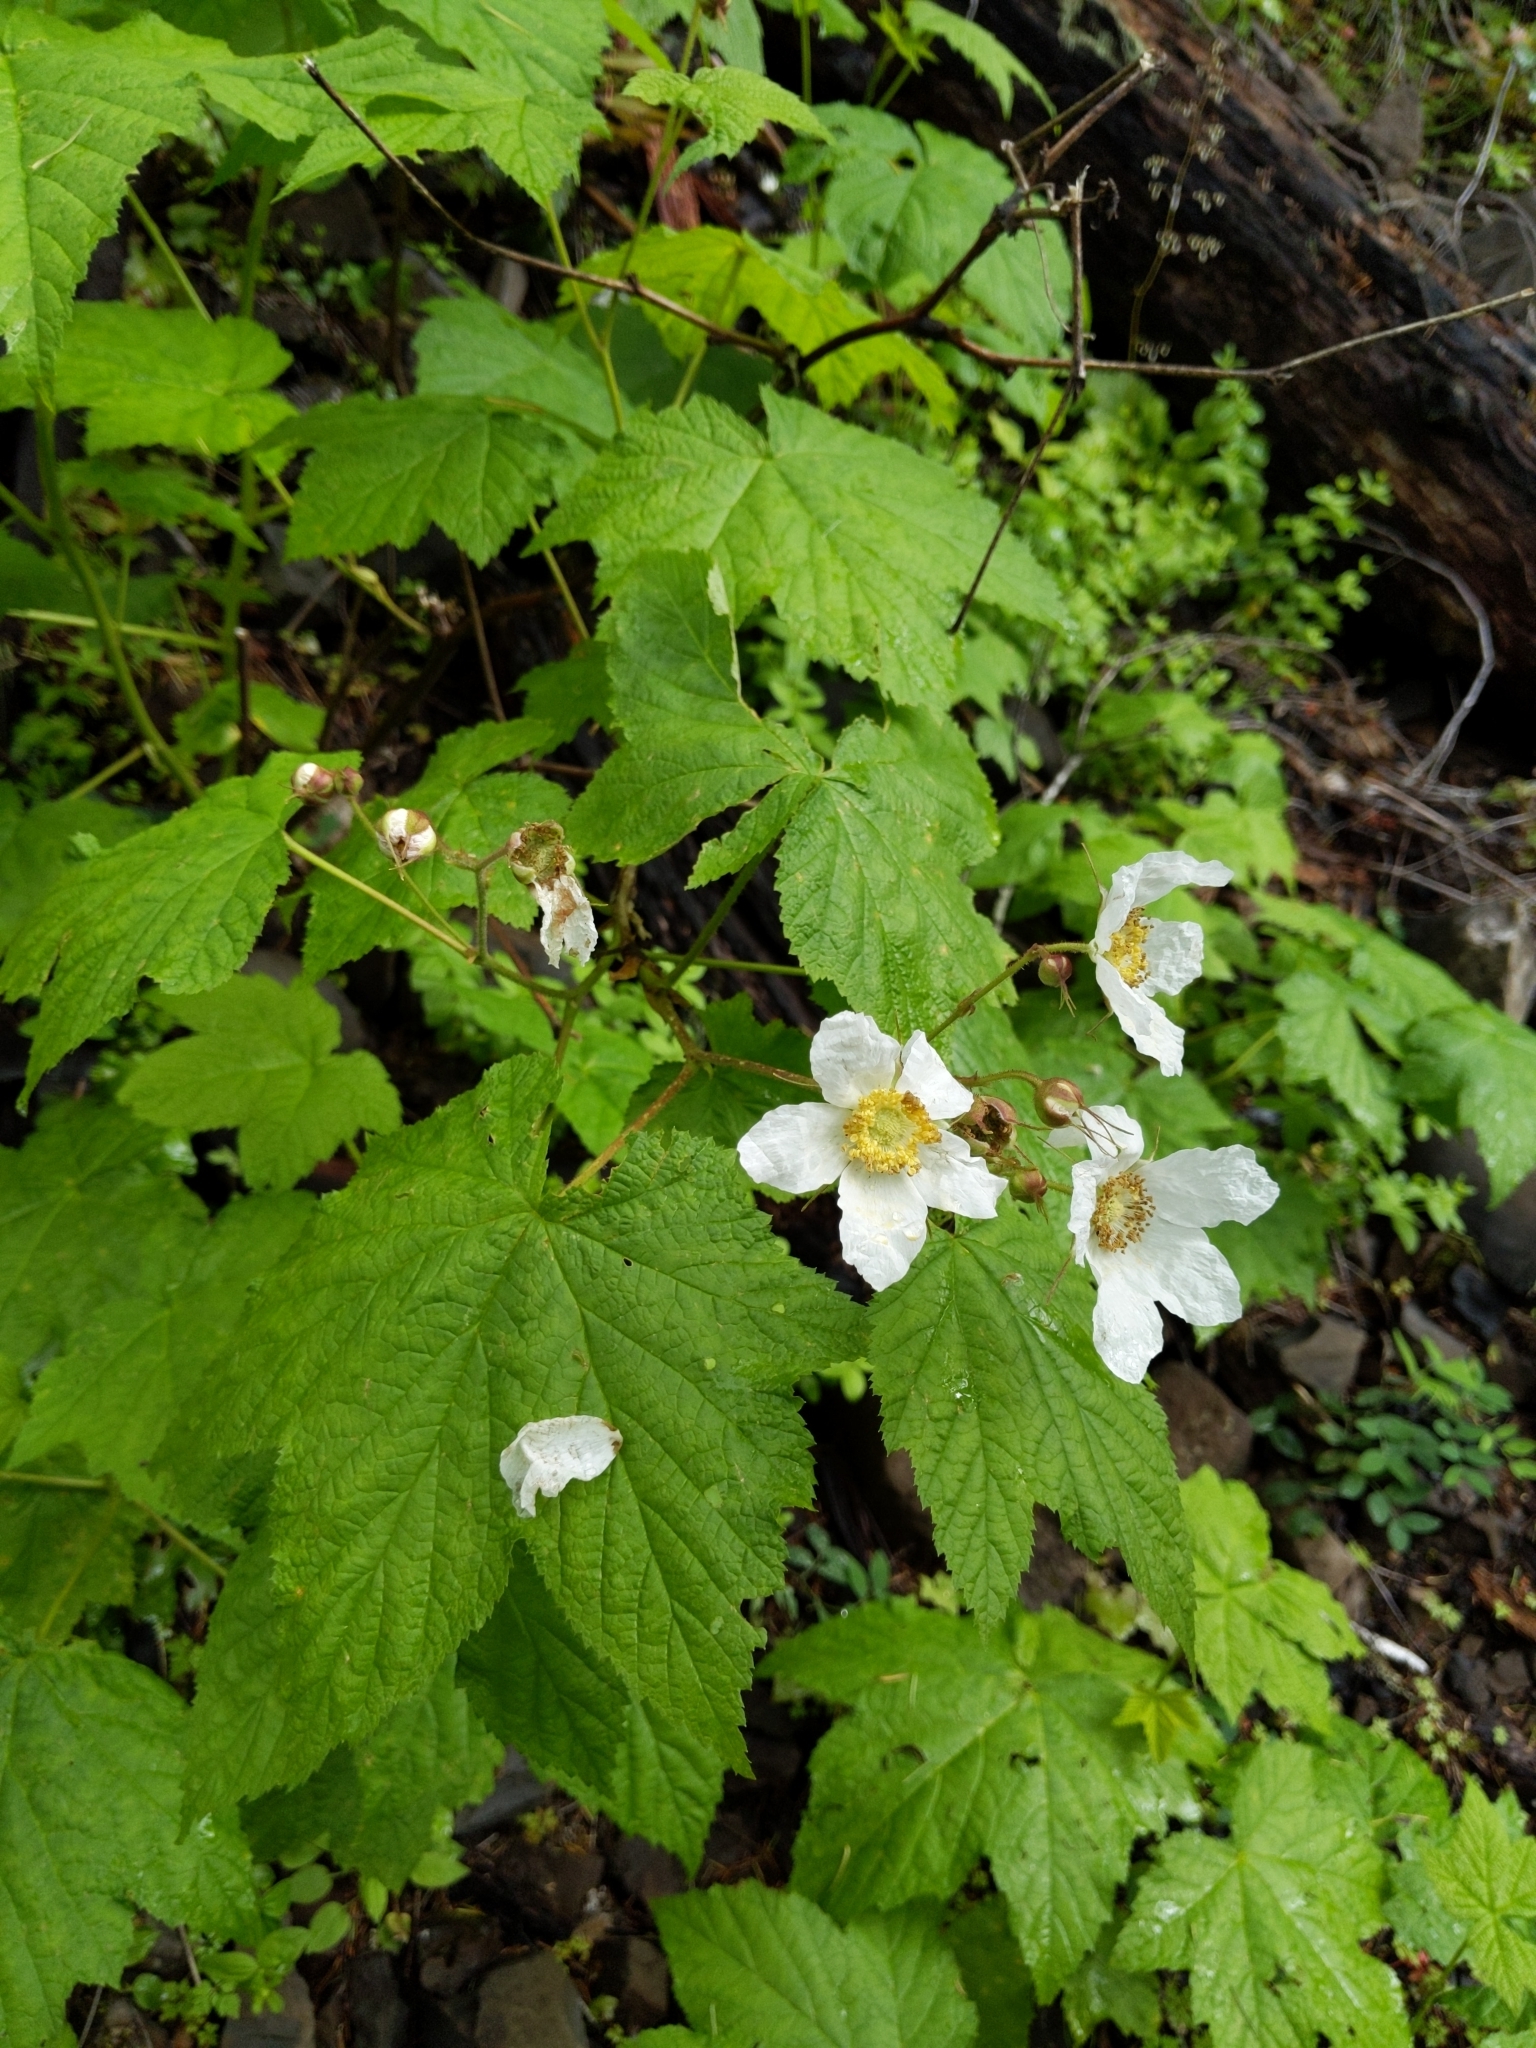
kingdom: Plantae
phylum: Tracheophyta
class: Magnoliopsida
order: Rosales
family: Rosaceae
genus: Rubus
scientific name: Rubus parviflorus
